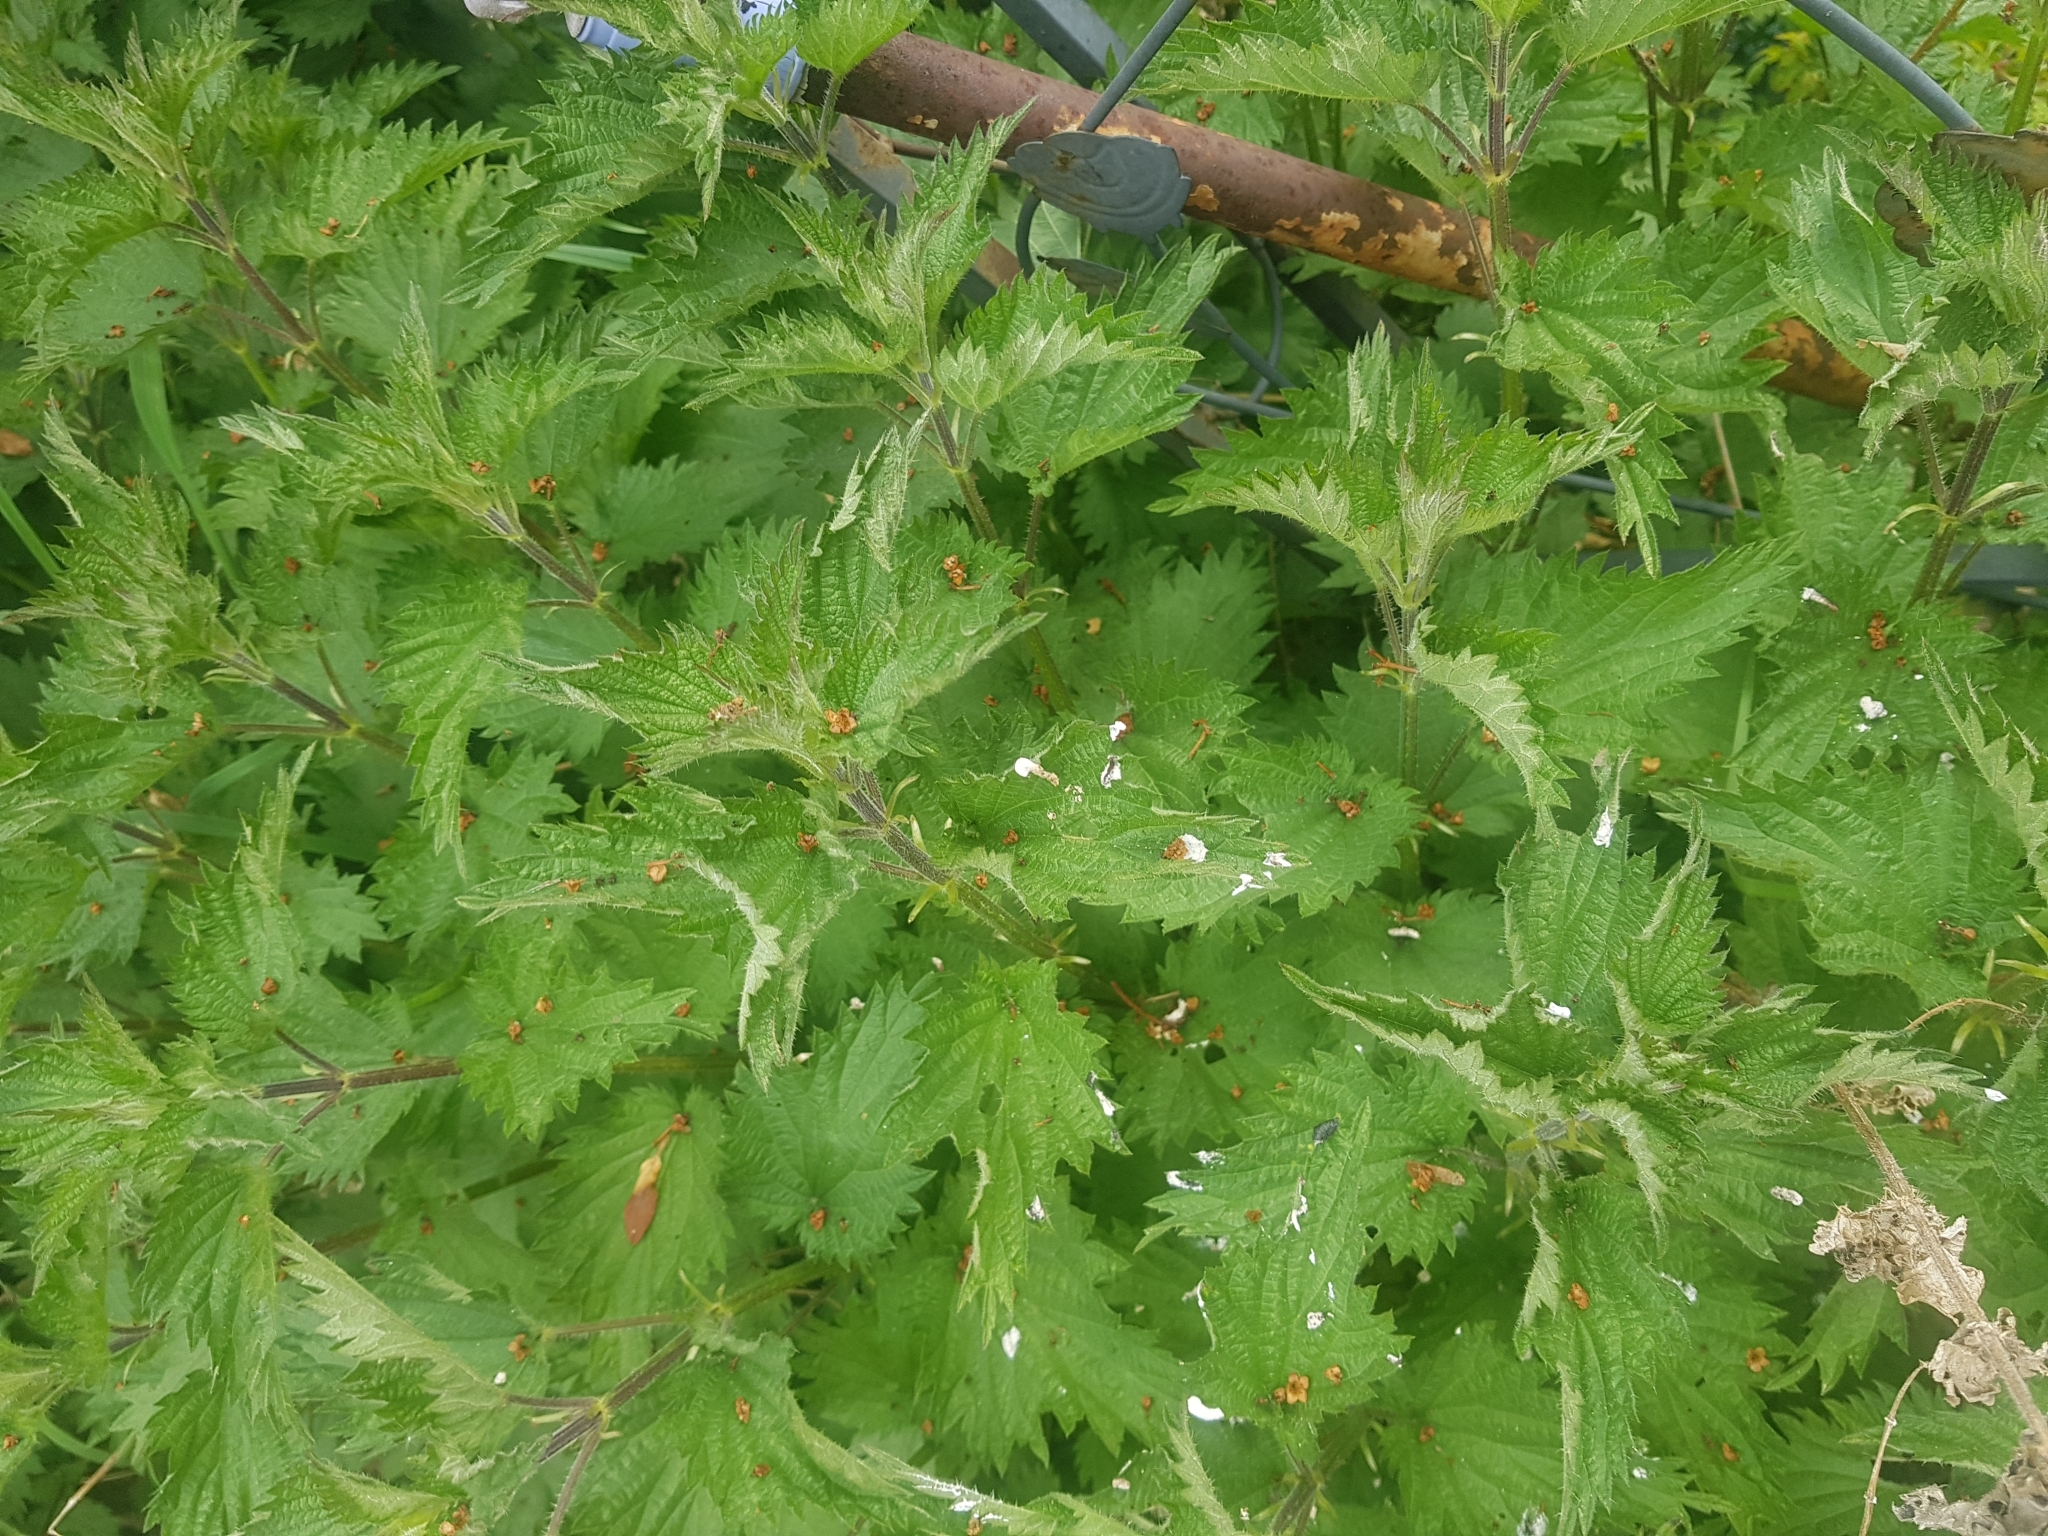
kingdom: Plantae
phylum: Tracheophyta
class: Magnoliopsida
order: Rosales
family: Urticaceae
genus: Urtica
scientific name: Urtica dioica
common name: Common nettle
